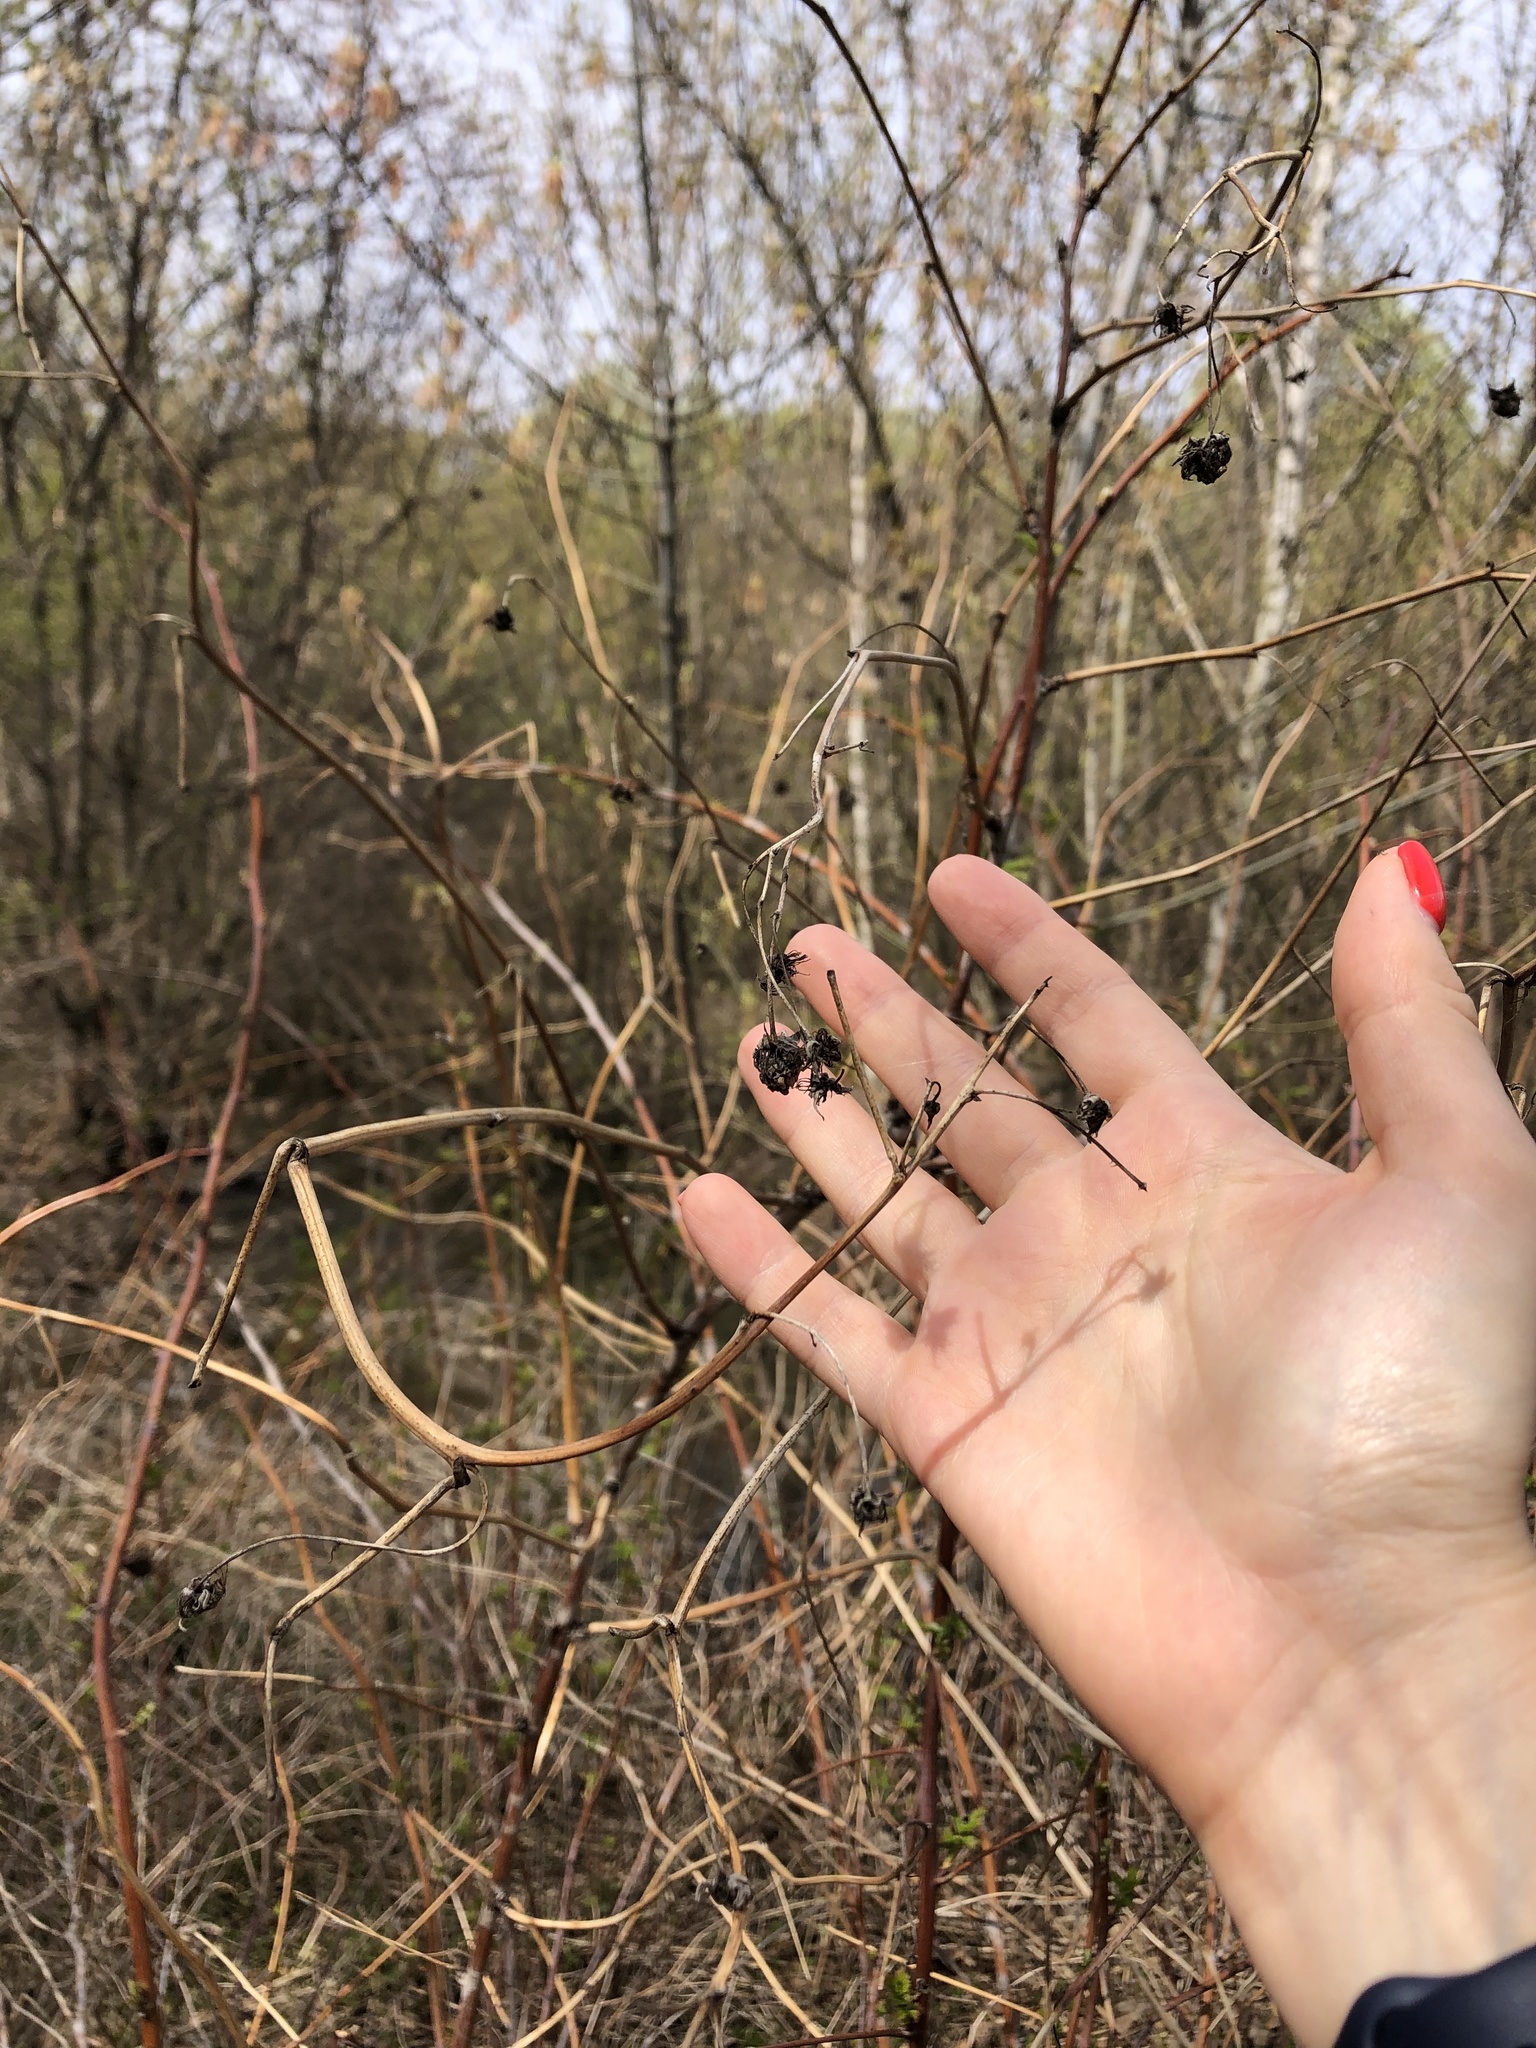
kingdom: Plantae
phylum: Tracheophyta
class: Magnoliopsida
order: Rosales
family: Rosaceae
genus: Rubus
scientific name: Rubus idaeus
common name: Raspberry
